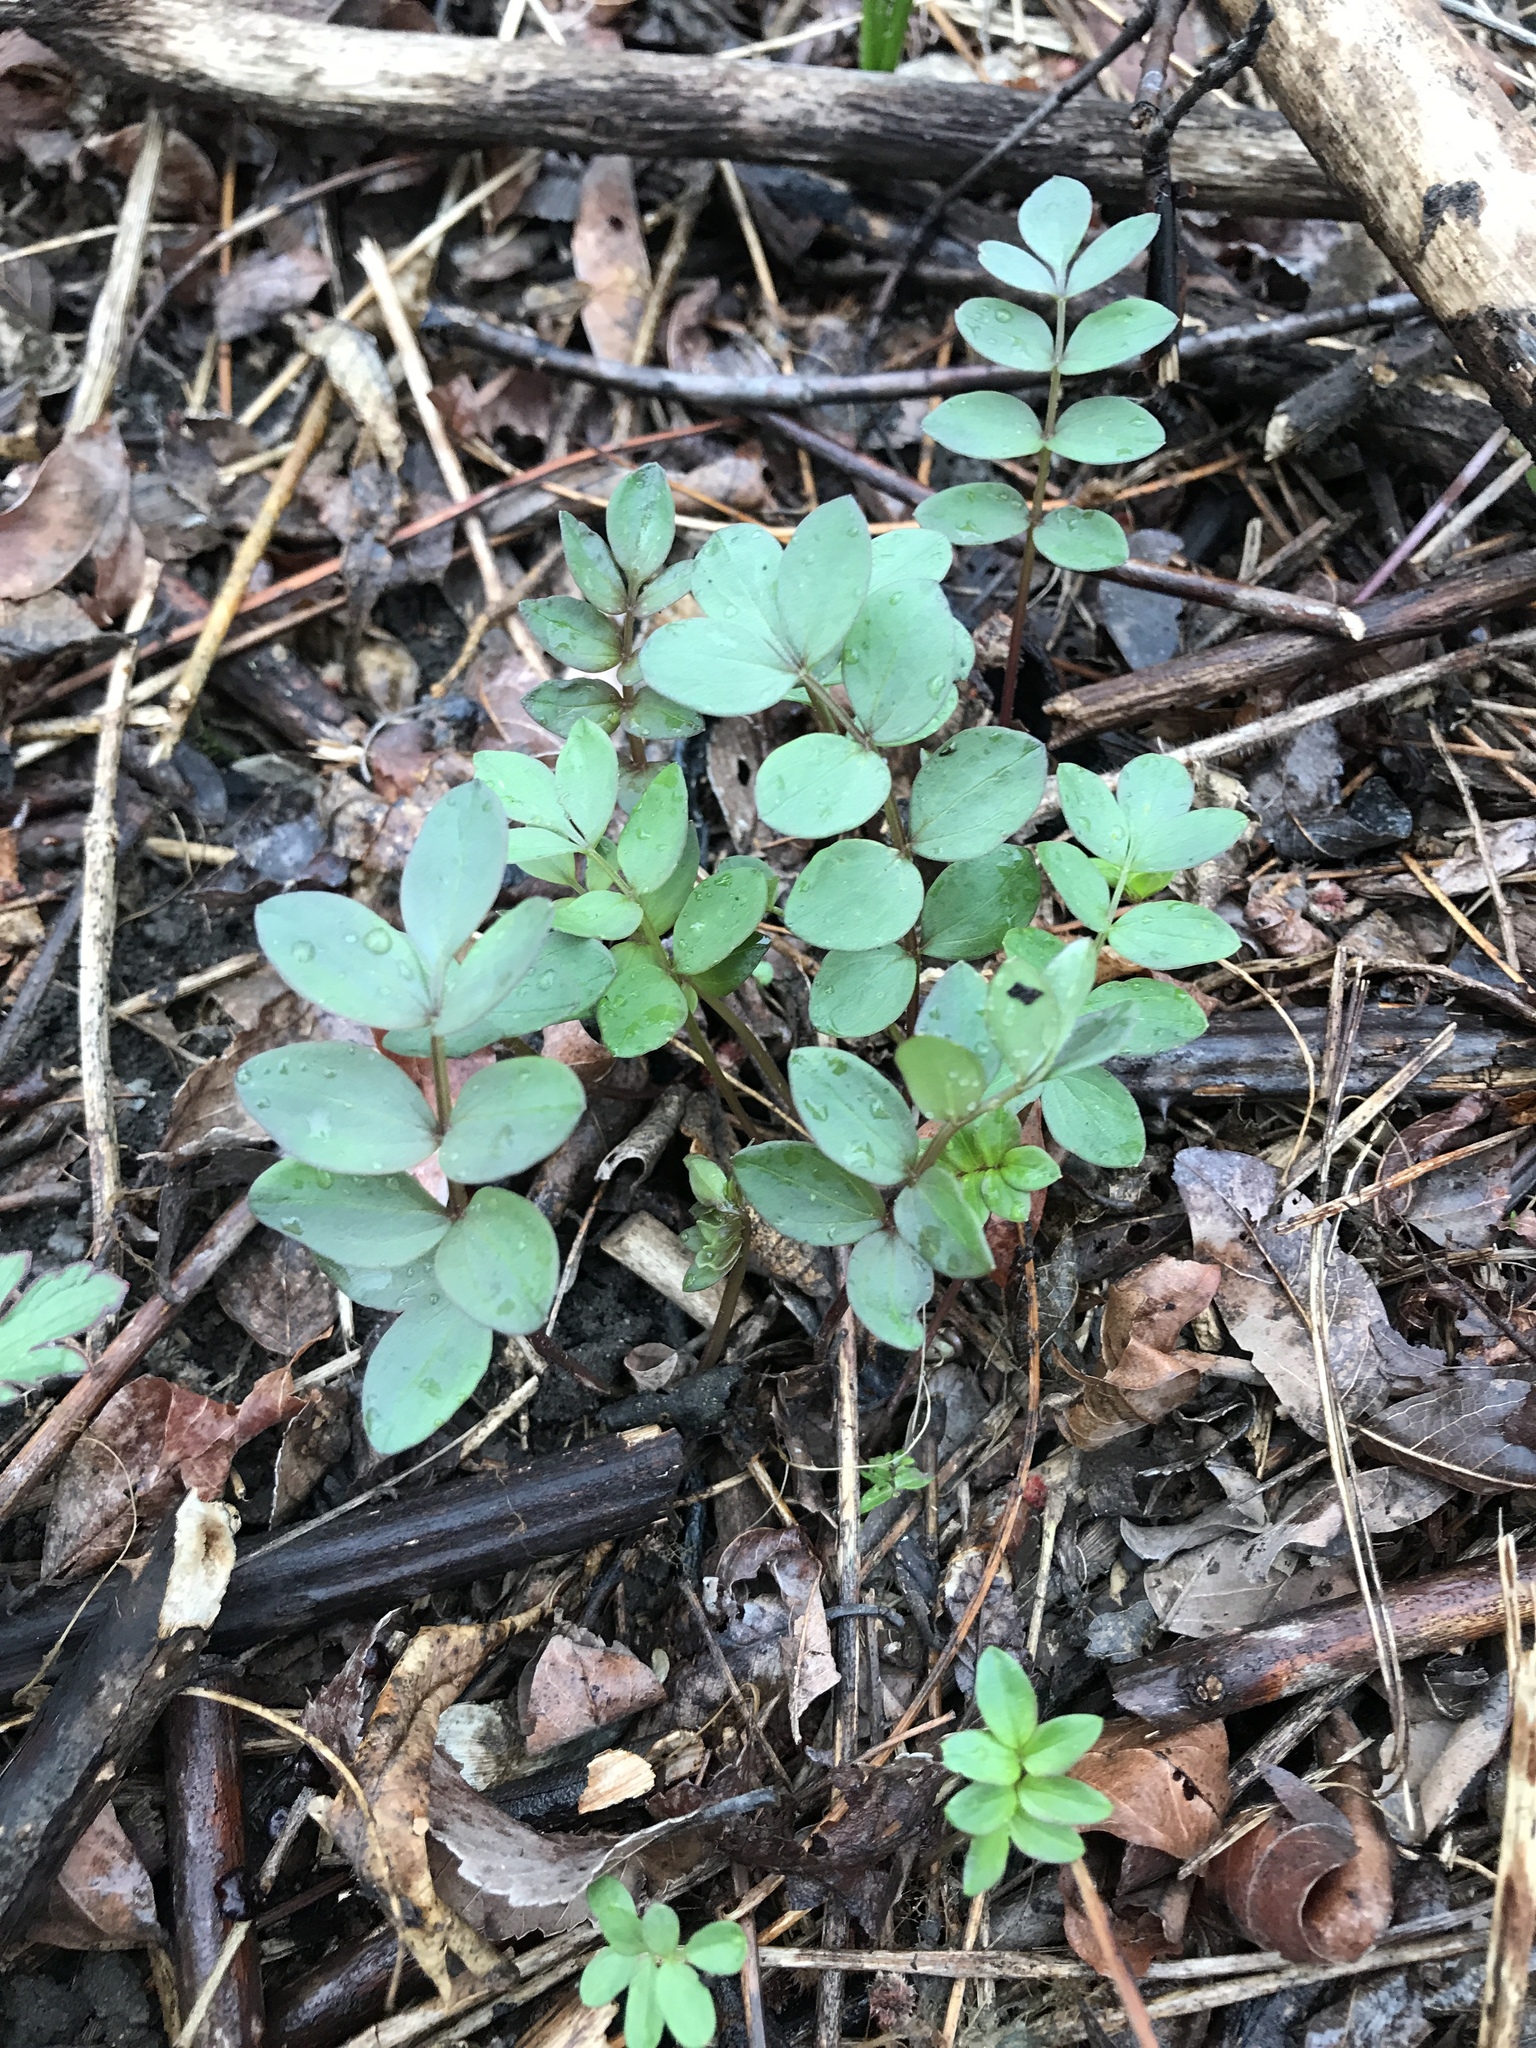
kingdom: Plantae
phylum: Tracheophyta
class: Magnoliopsida
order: Ericales
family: Polemoniaceae
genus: Polemonium
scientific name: Polemonium reptans
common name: Creeping jacob's-ladder
